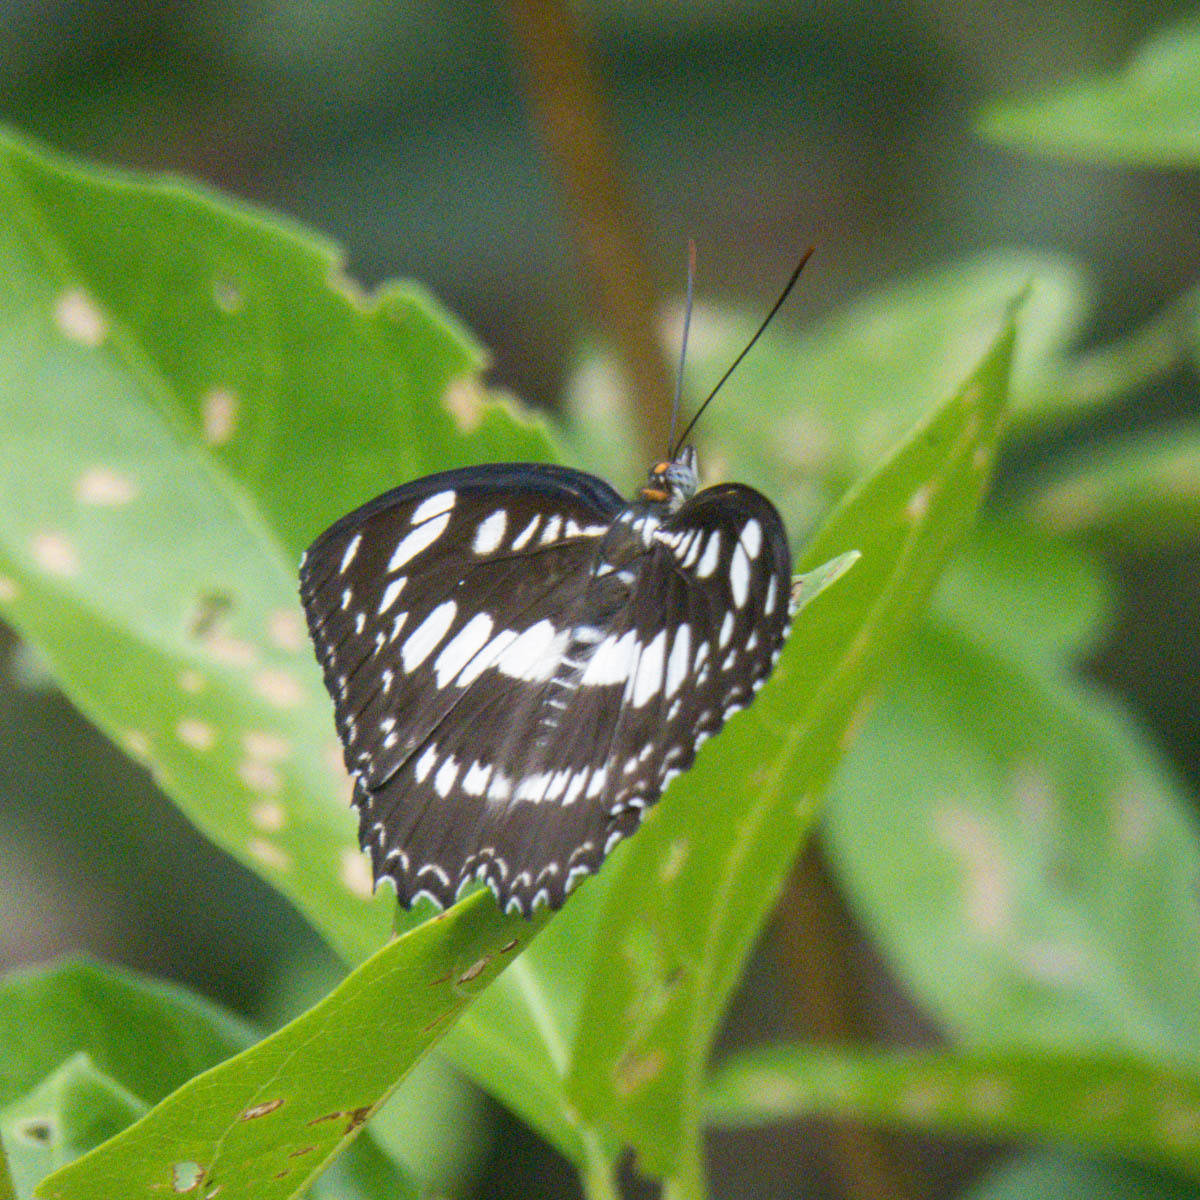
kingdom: Animalia
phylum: Arthropoda
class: Insecta
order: Lepidoptera
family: Nymphalidae
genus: Parathyma
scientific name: Parathyma perius
